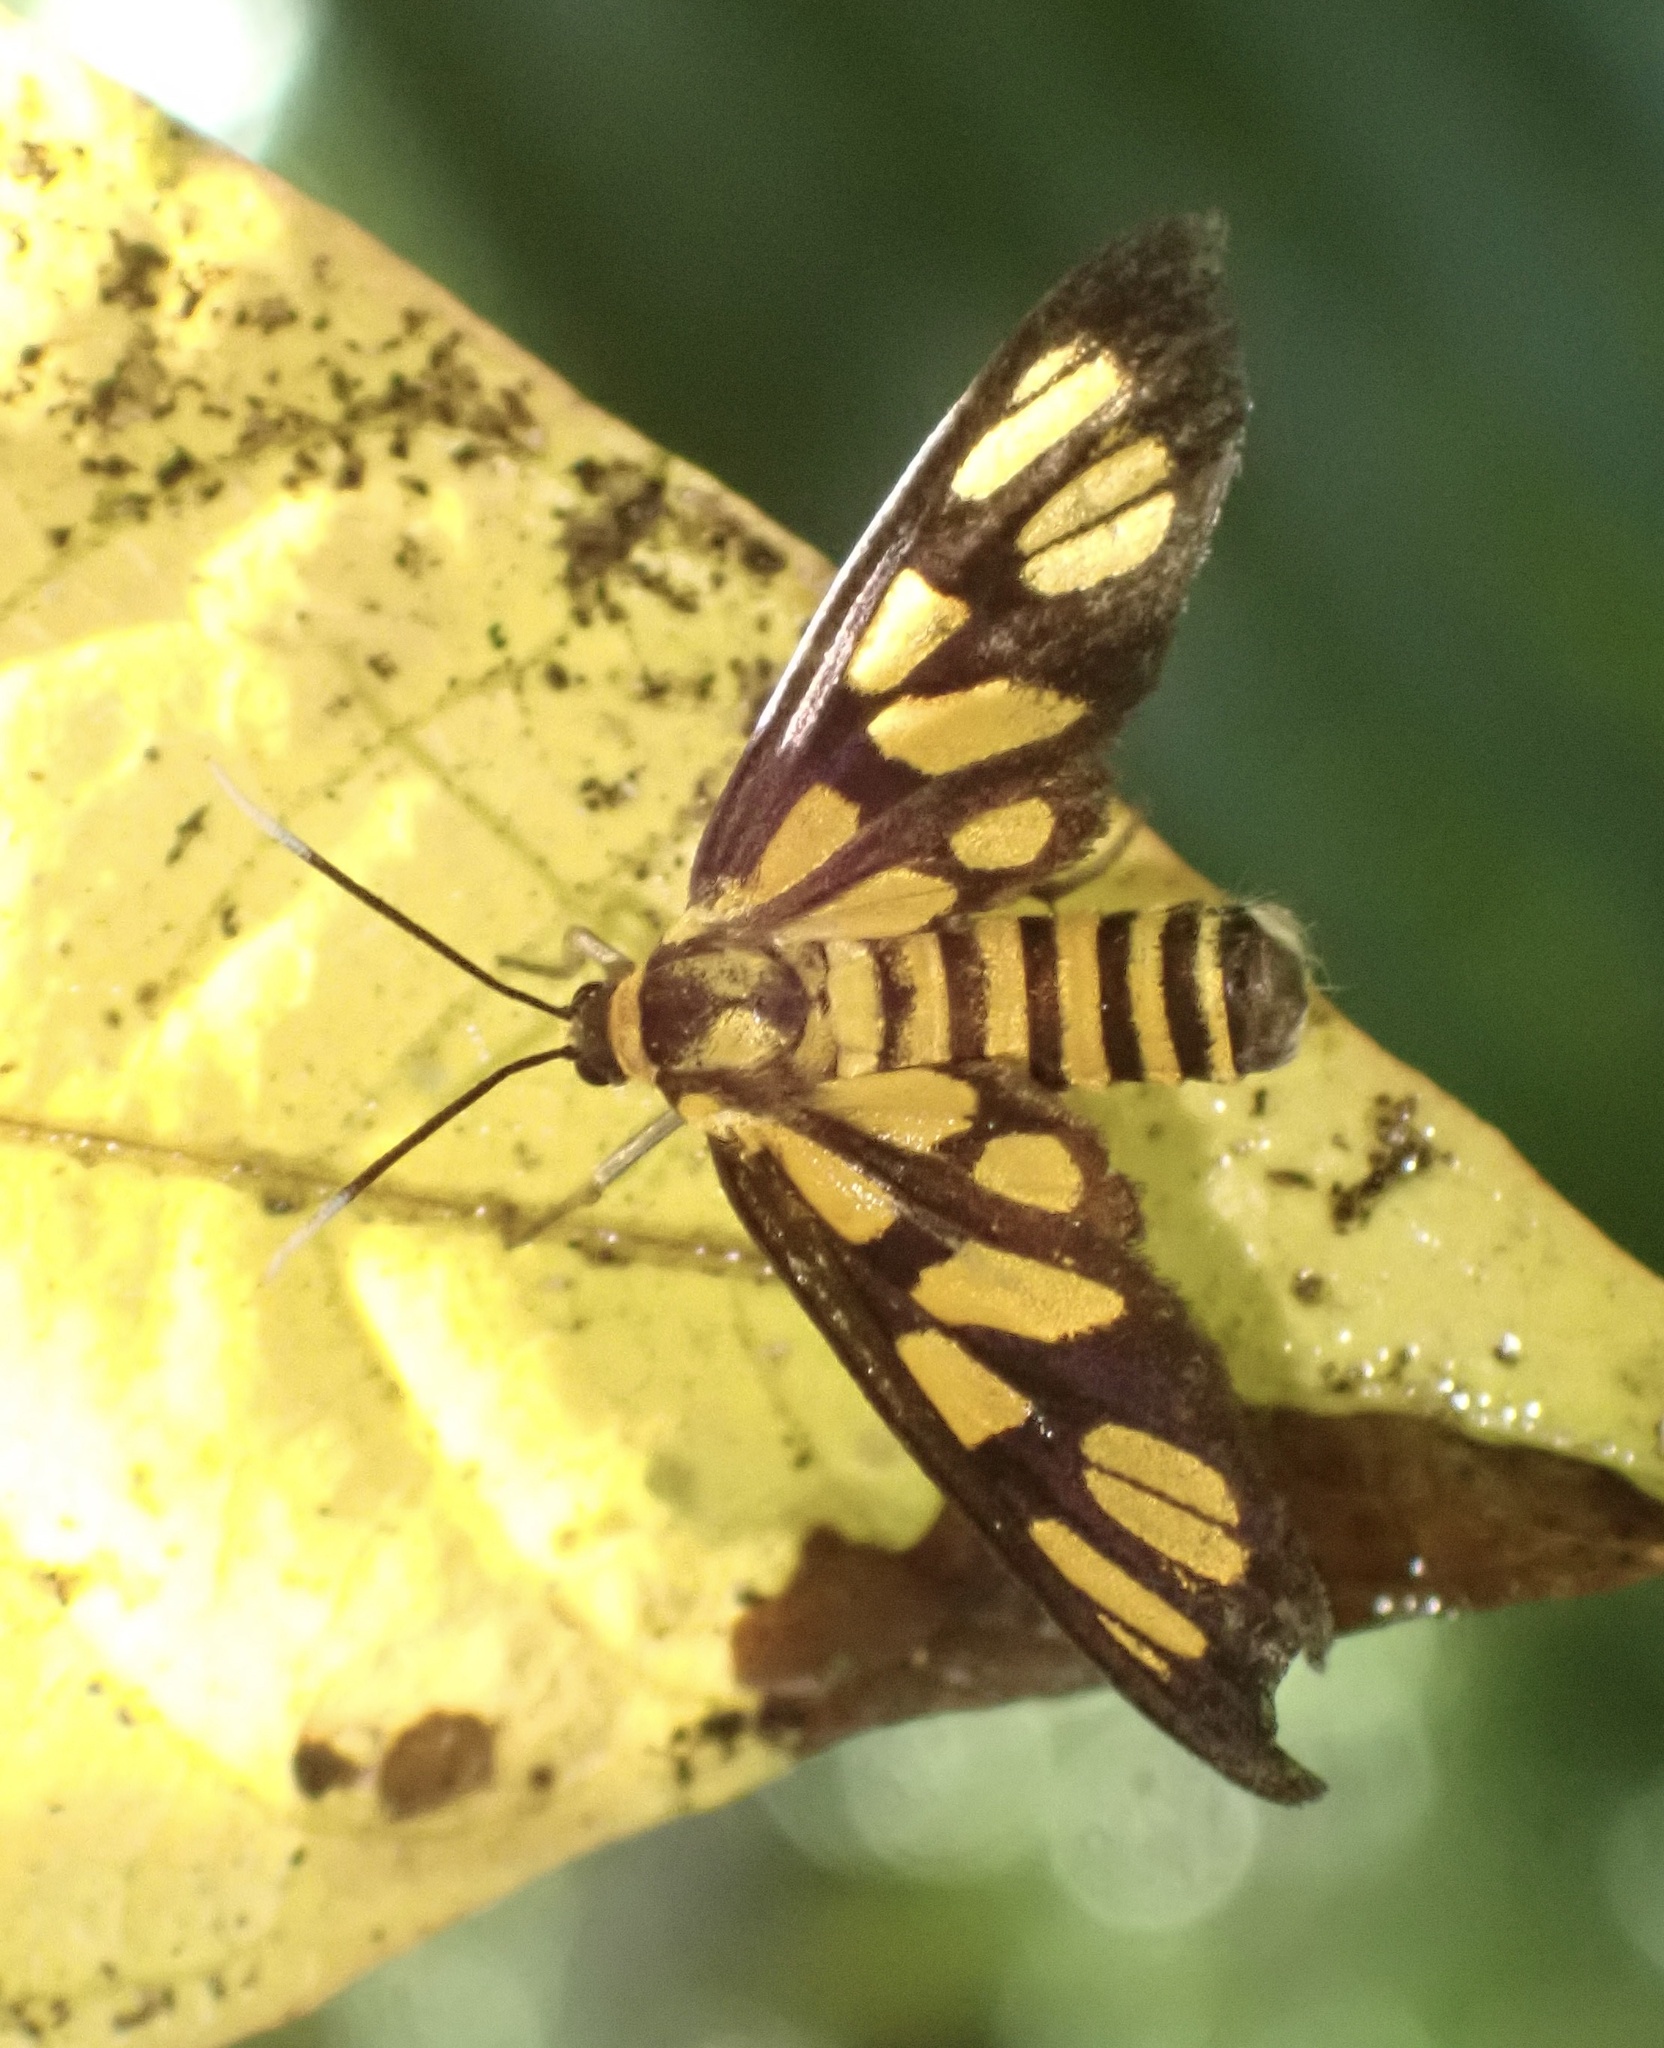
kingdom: Animalia
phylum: Arthropoda
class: Insecta
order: Lepidoptera
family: Erebidae
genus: Amata
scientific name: Amata huebneri
